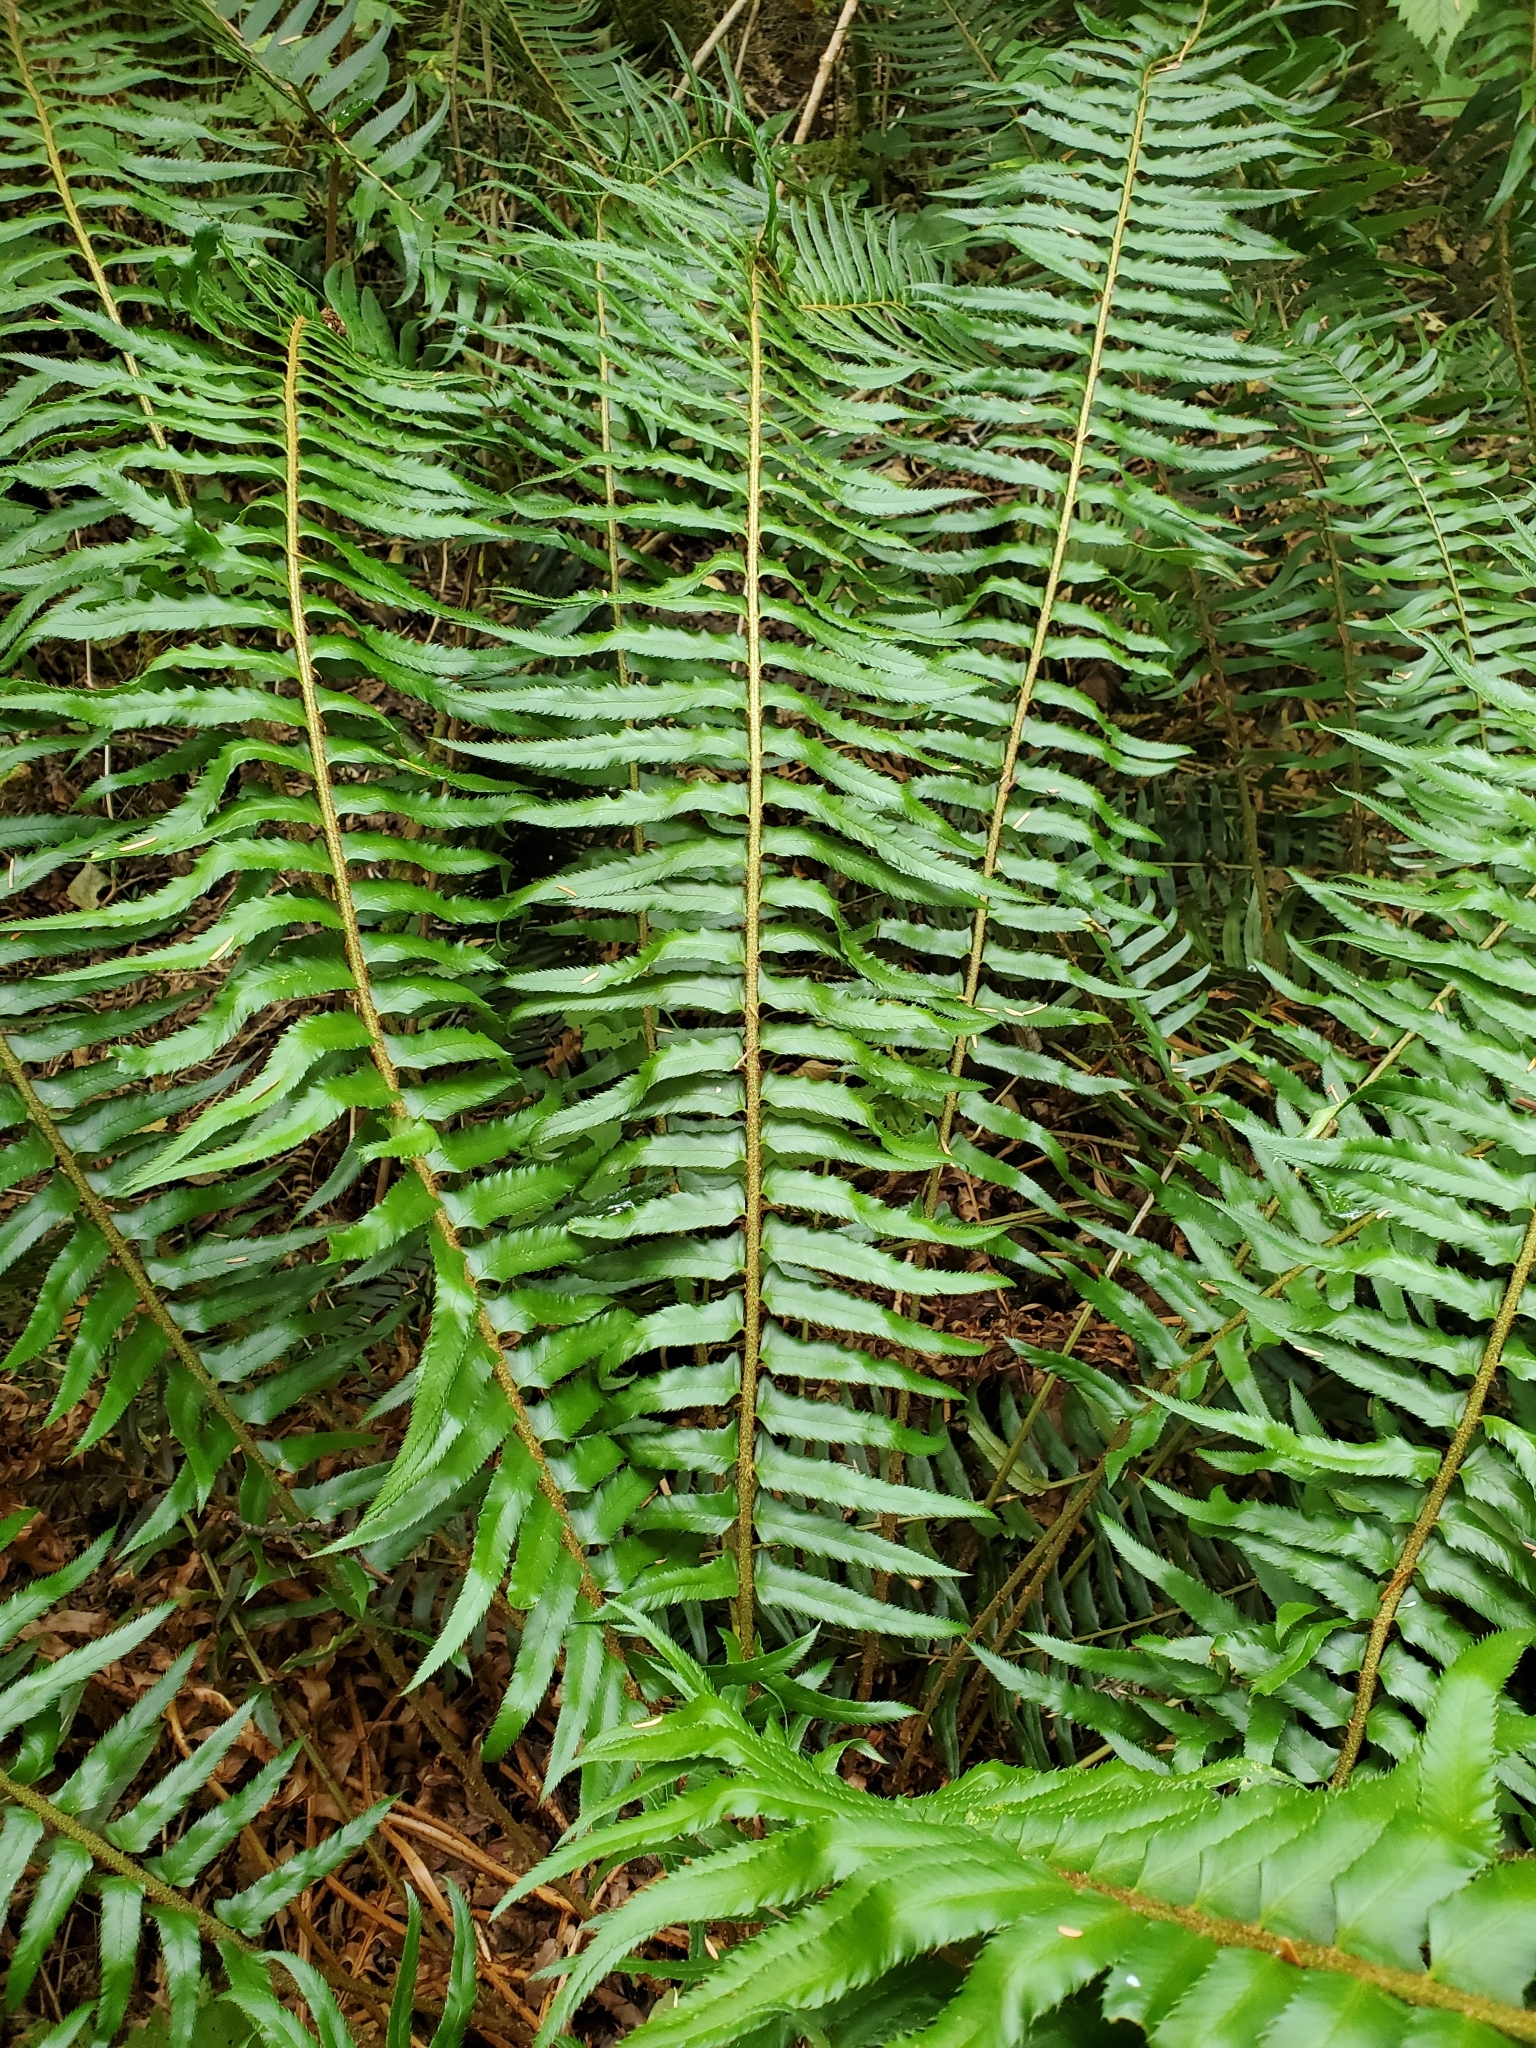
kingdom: Plantae
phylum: Tracheophyta
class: Polypodiopsida
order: Polypodiales
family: Dryopteridaceae
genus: Polystichum
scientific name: Polystichum munitum
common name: Western sword-fern
